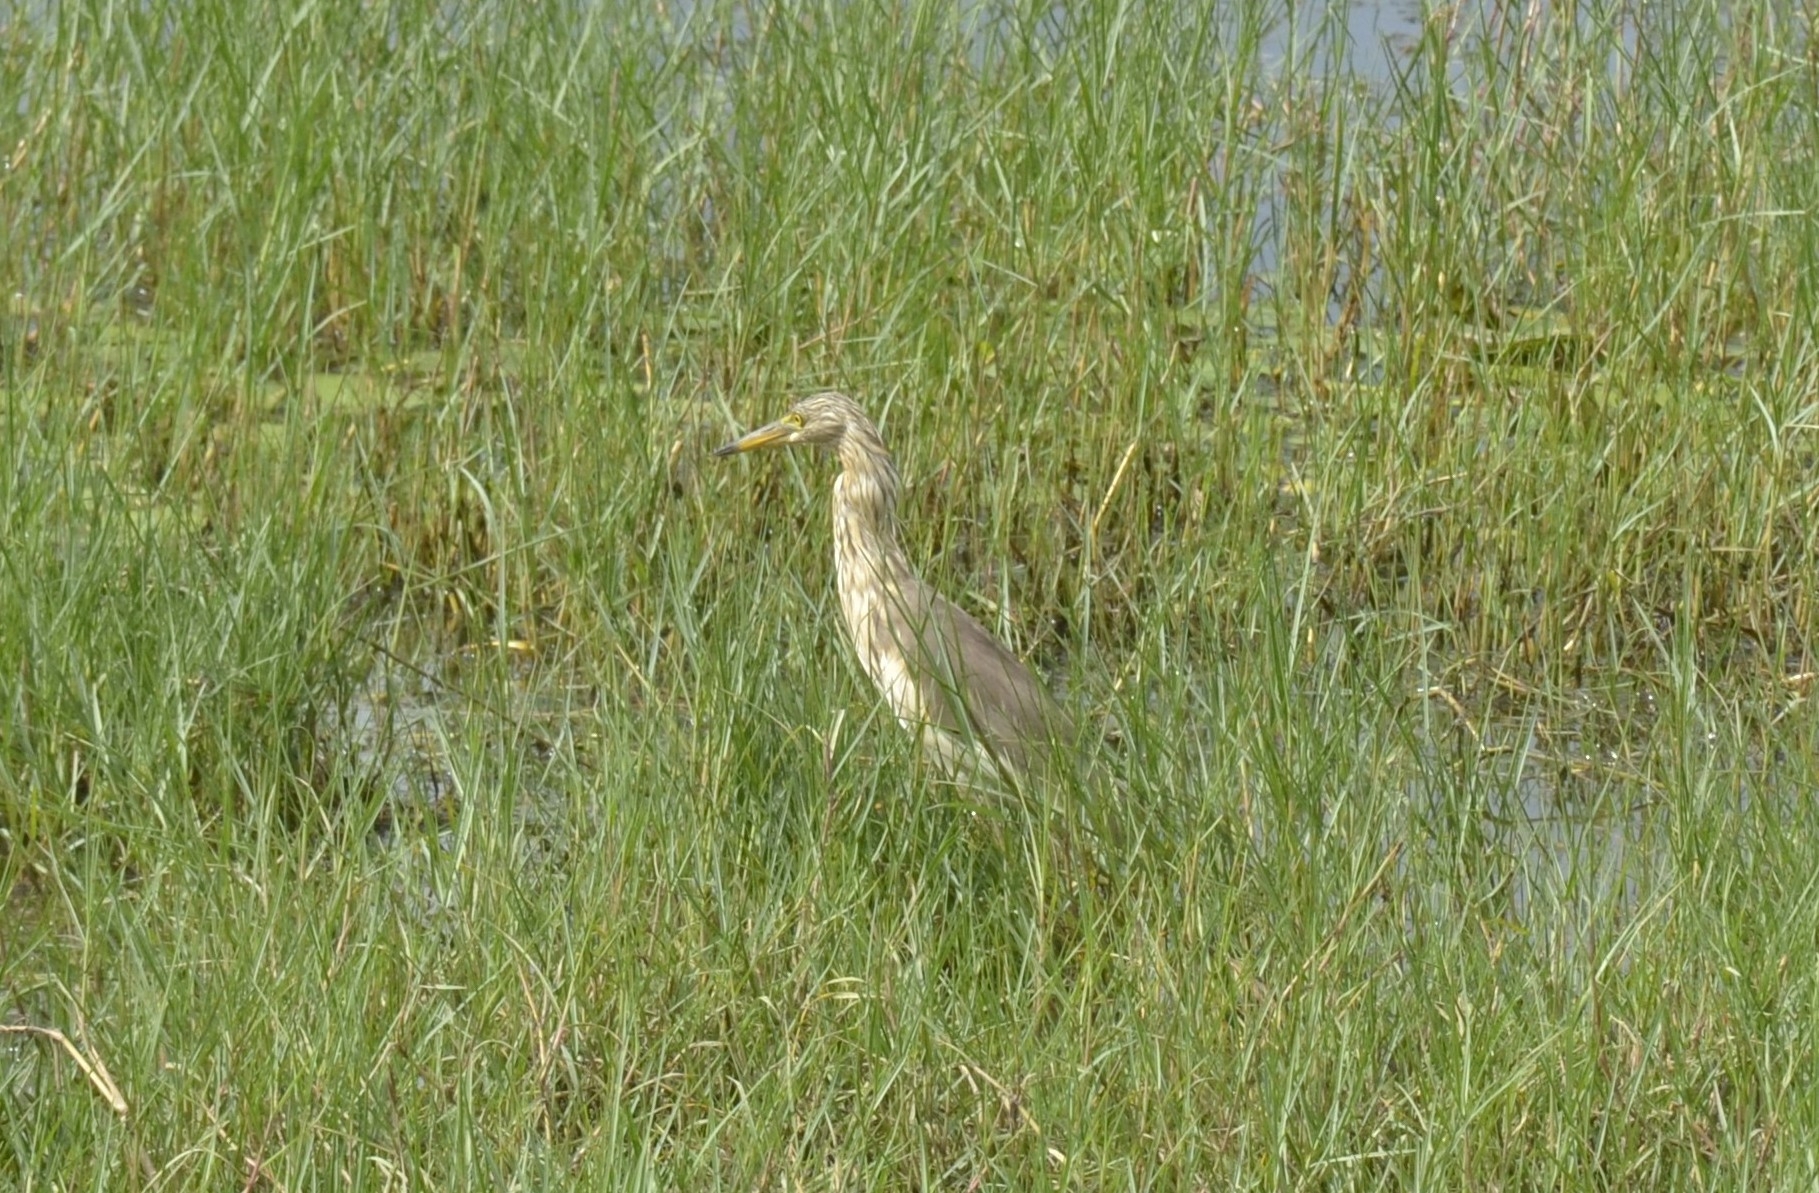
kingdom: Animalia
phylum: Chordata
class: Aves
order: Pelecaniformes
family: Ardeidae
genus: Ardeola
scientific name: Ardeola grayii
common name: Indian pond heron
